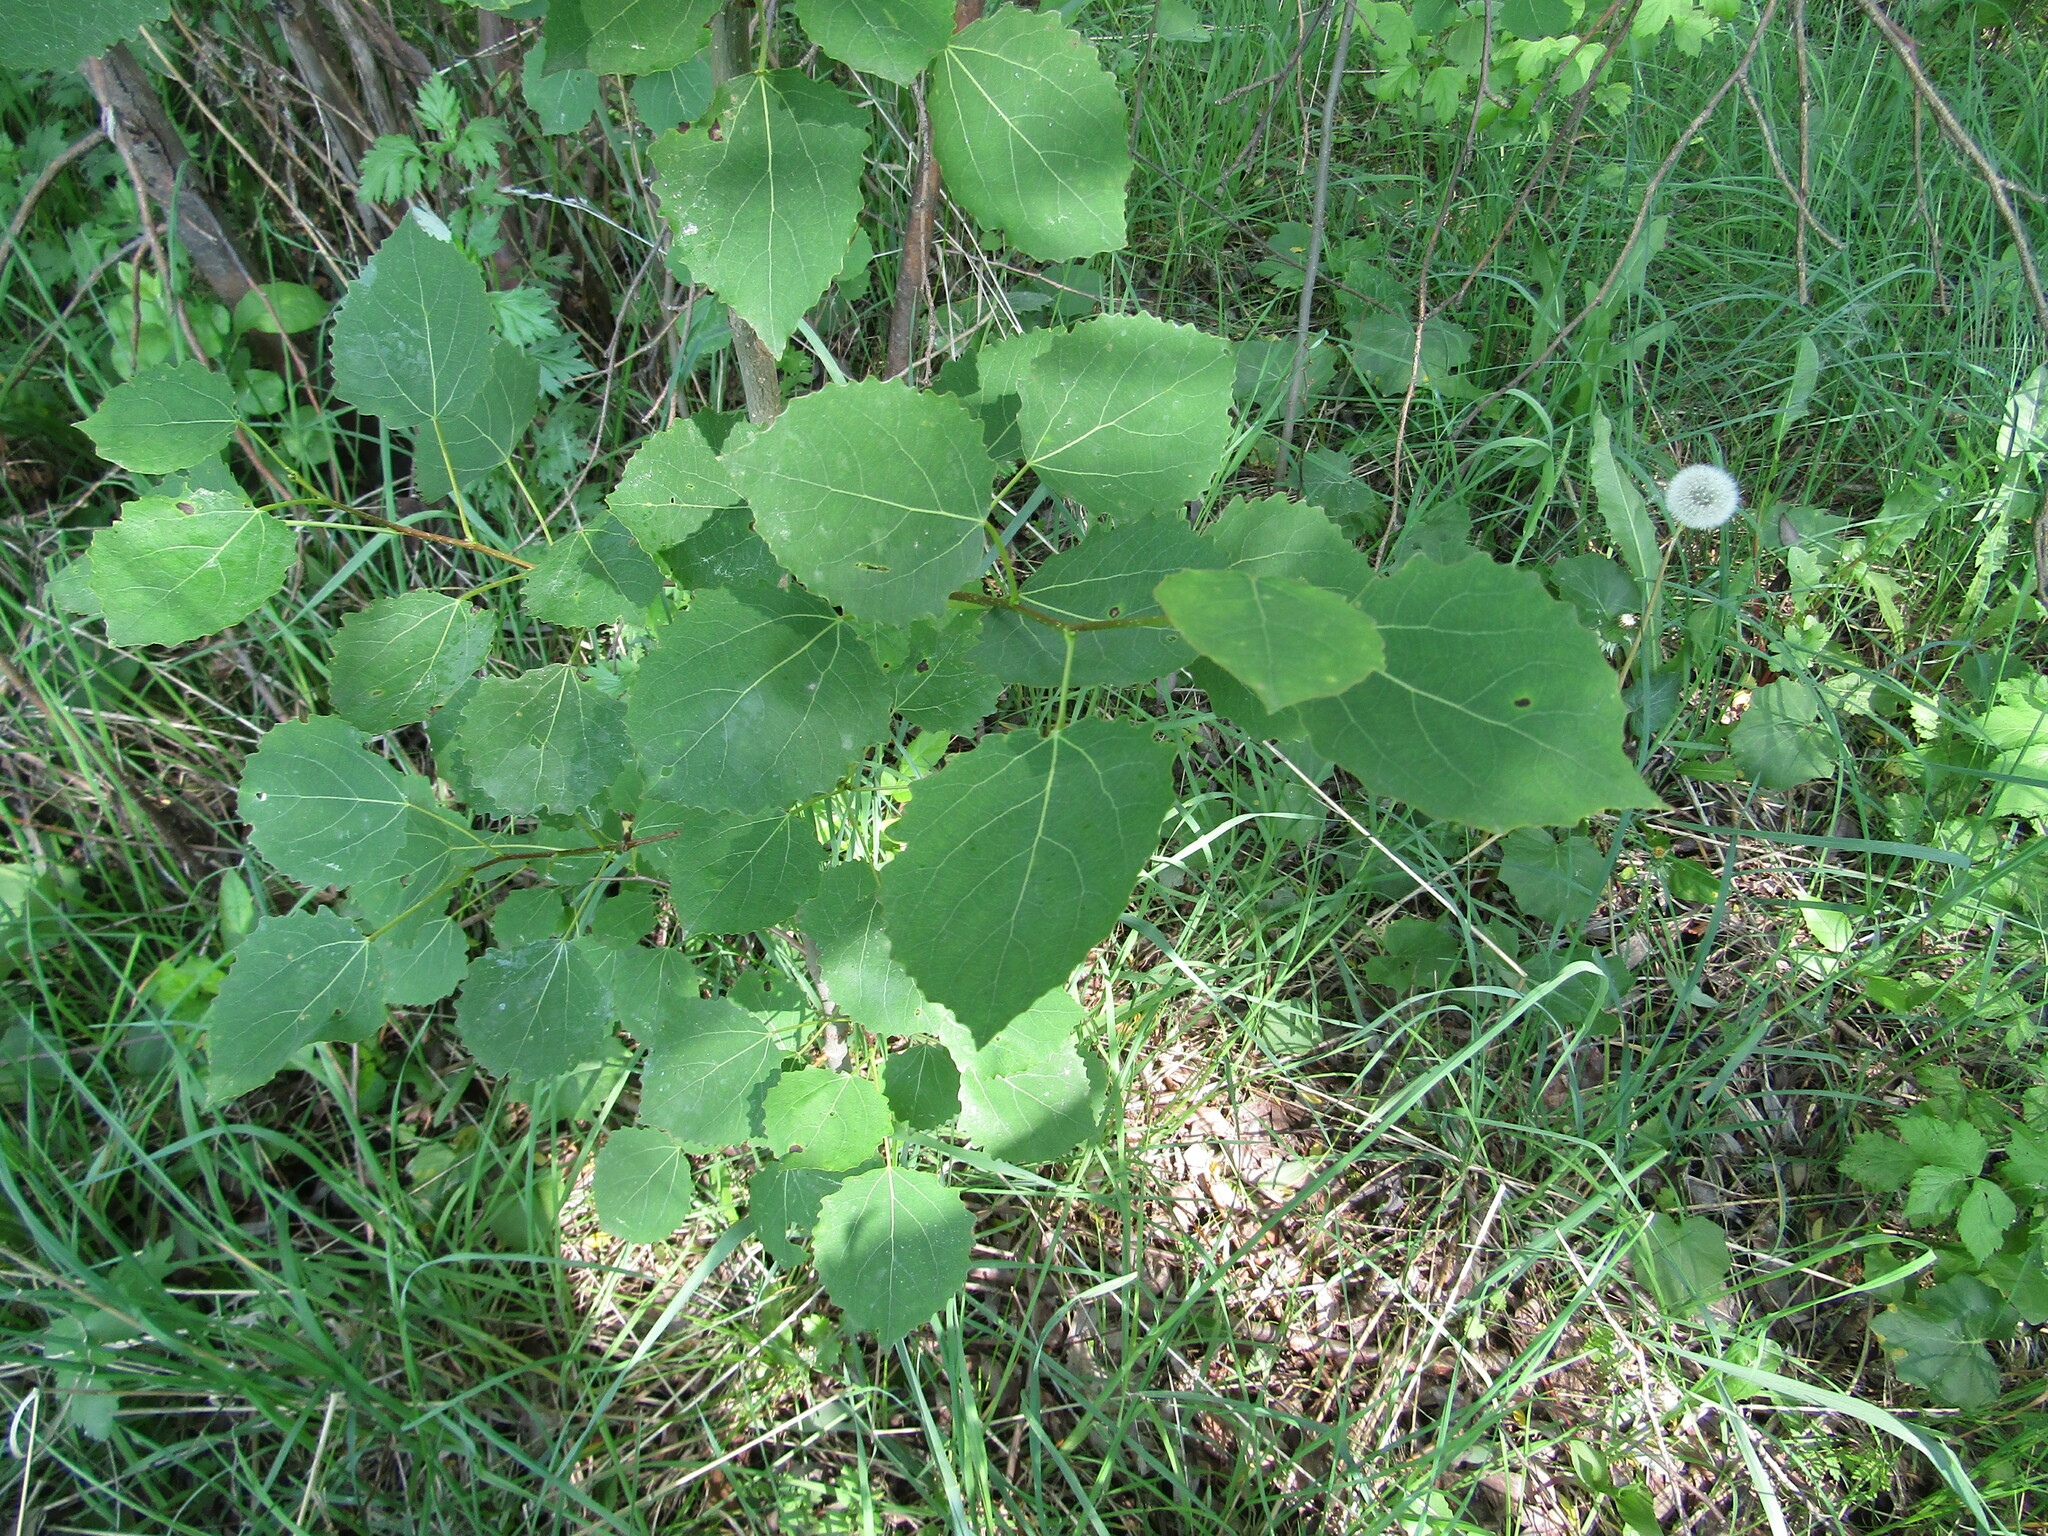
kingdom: Plantae
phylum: Tracheophyta
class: Magnoliopsida
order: Malpighiales
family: Salicaceae
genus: Populus
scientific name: Populus tremula
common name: European aspen
